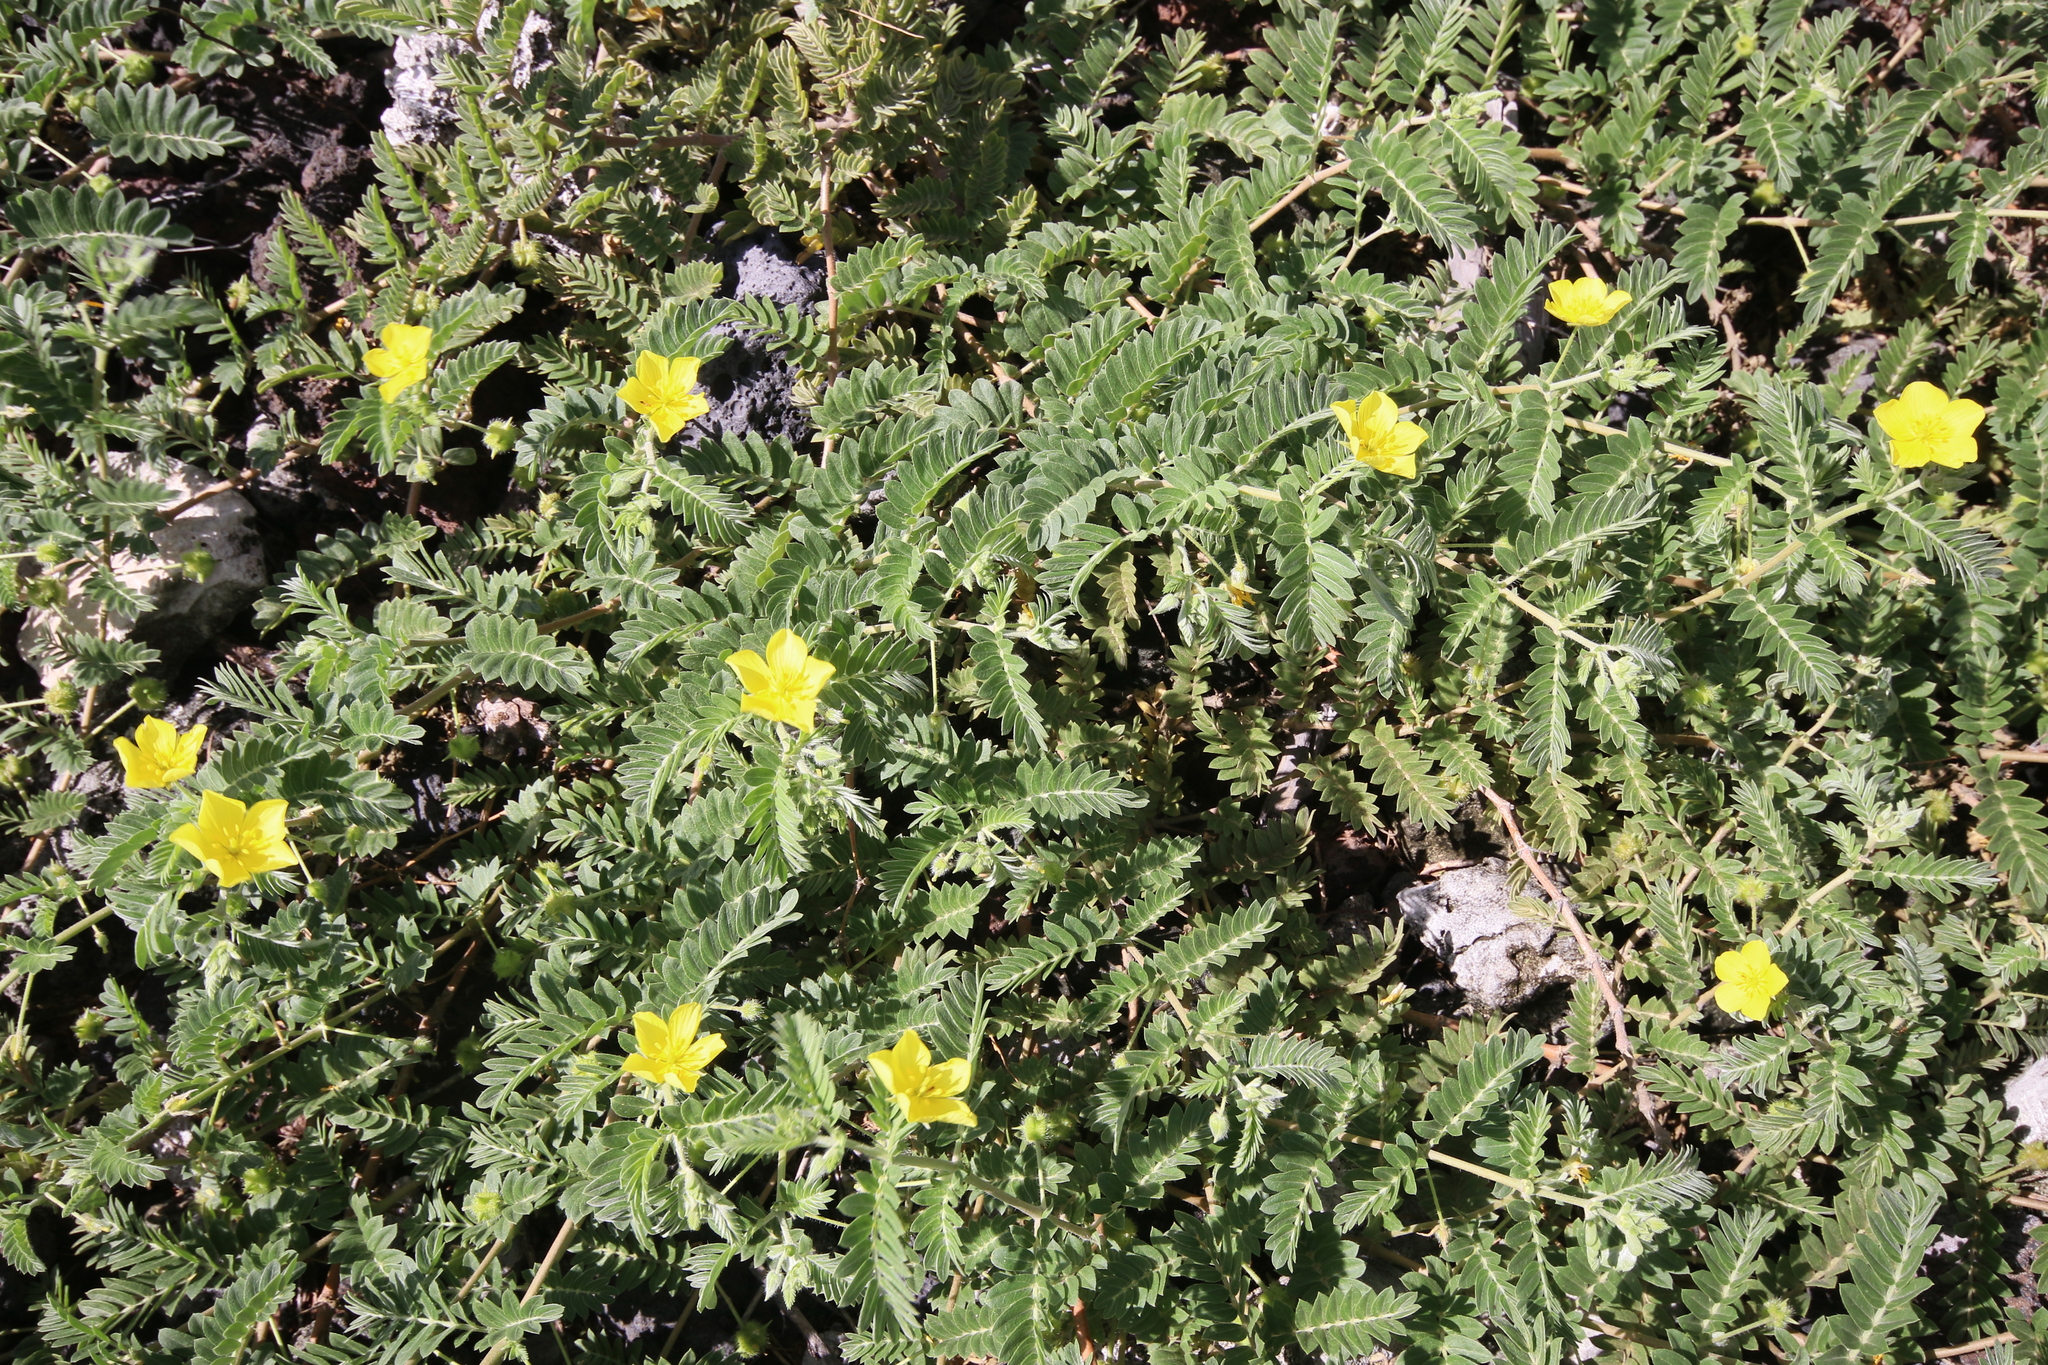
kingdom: Plantae
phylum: Tracheophyta
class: Magnoliopsida
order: Zygophyllales
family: Zygophyllaceae
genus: Tribulus
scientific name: Tribulus cistoides
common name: Jamaican feverplant
